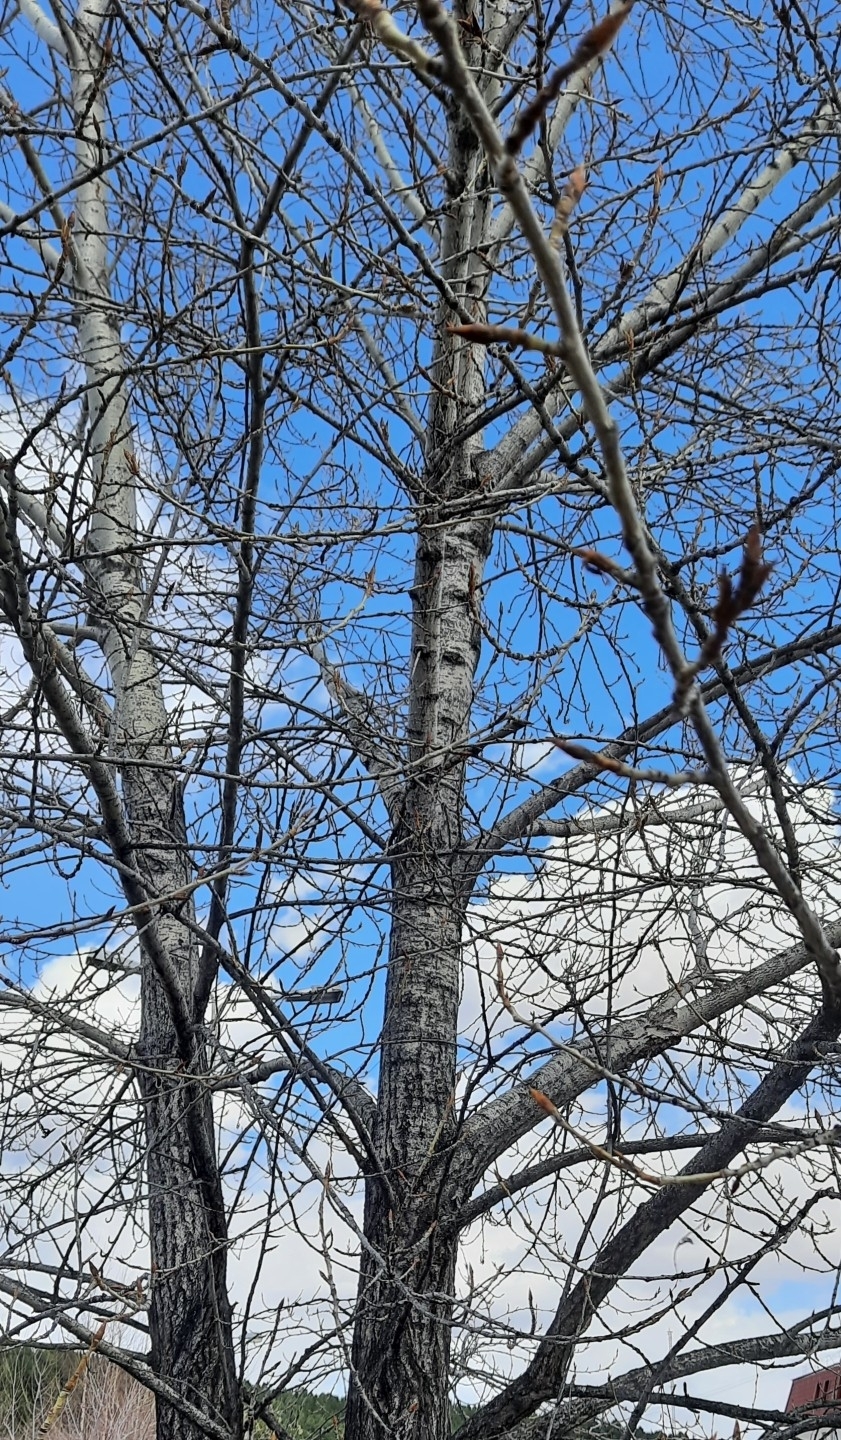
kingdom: Plantae
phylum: Tracheophyta
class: Magnoliopsida
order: Malpighiales
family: Salicaceae
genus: Populus
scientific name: Populus sibirica
